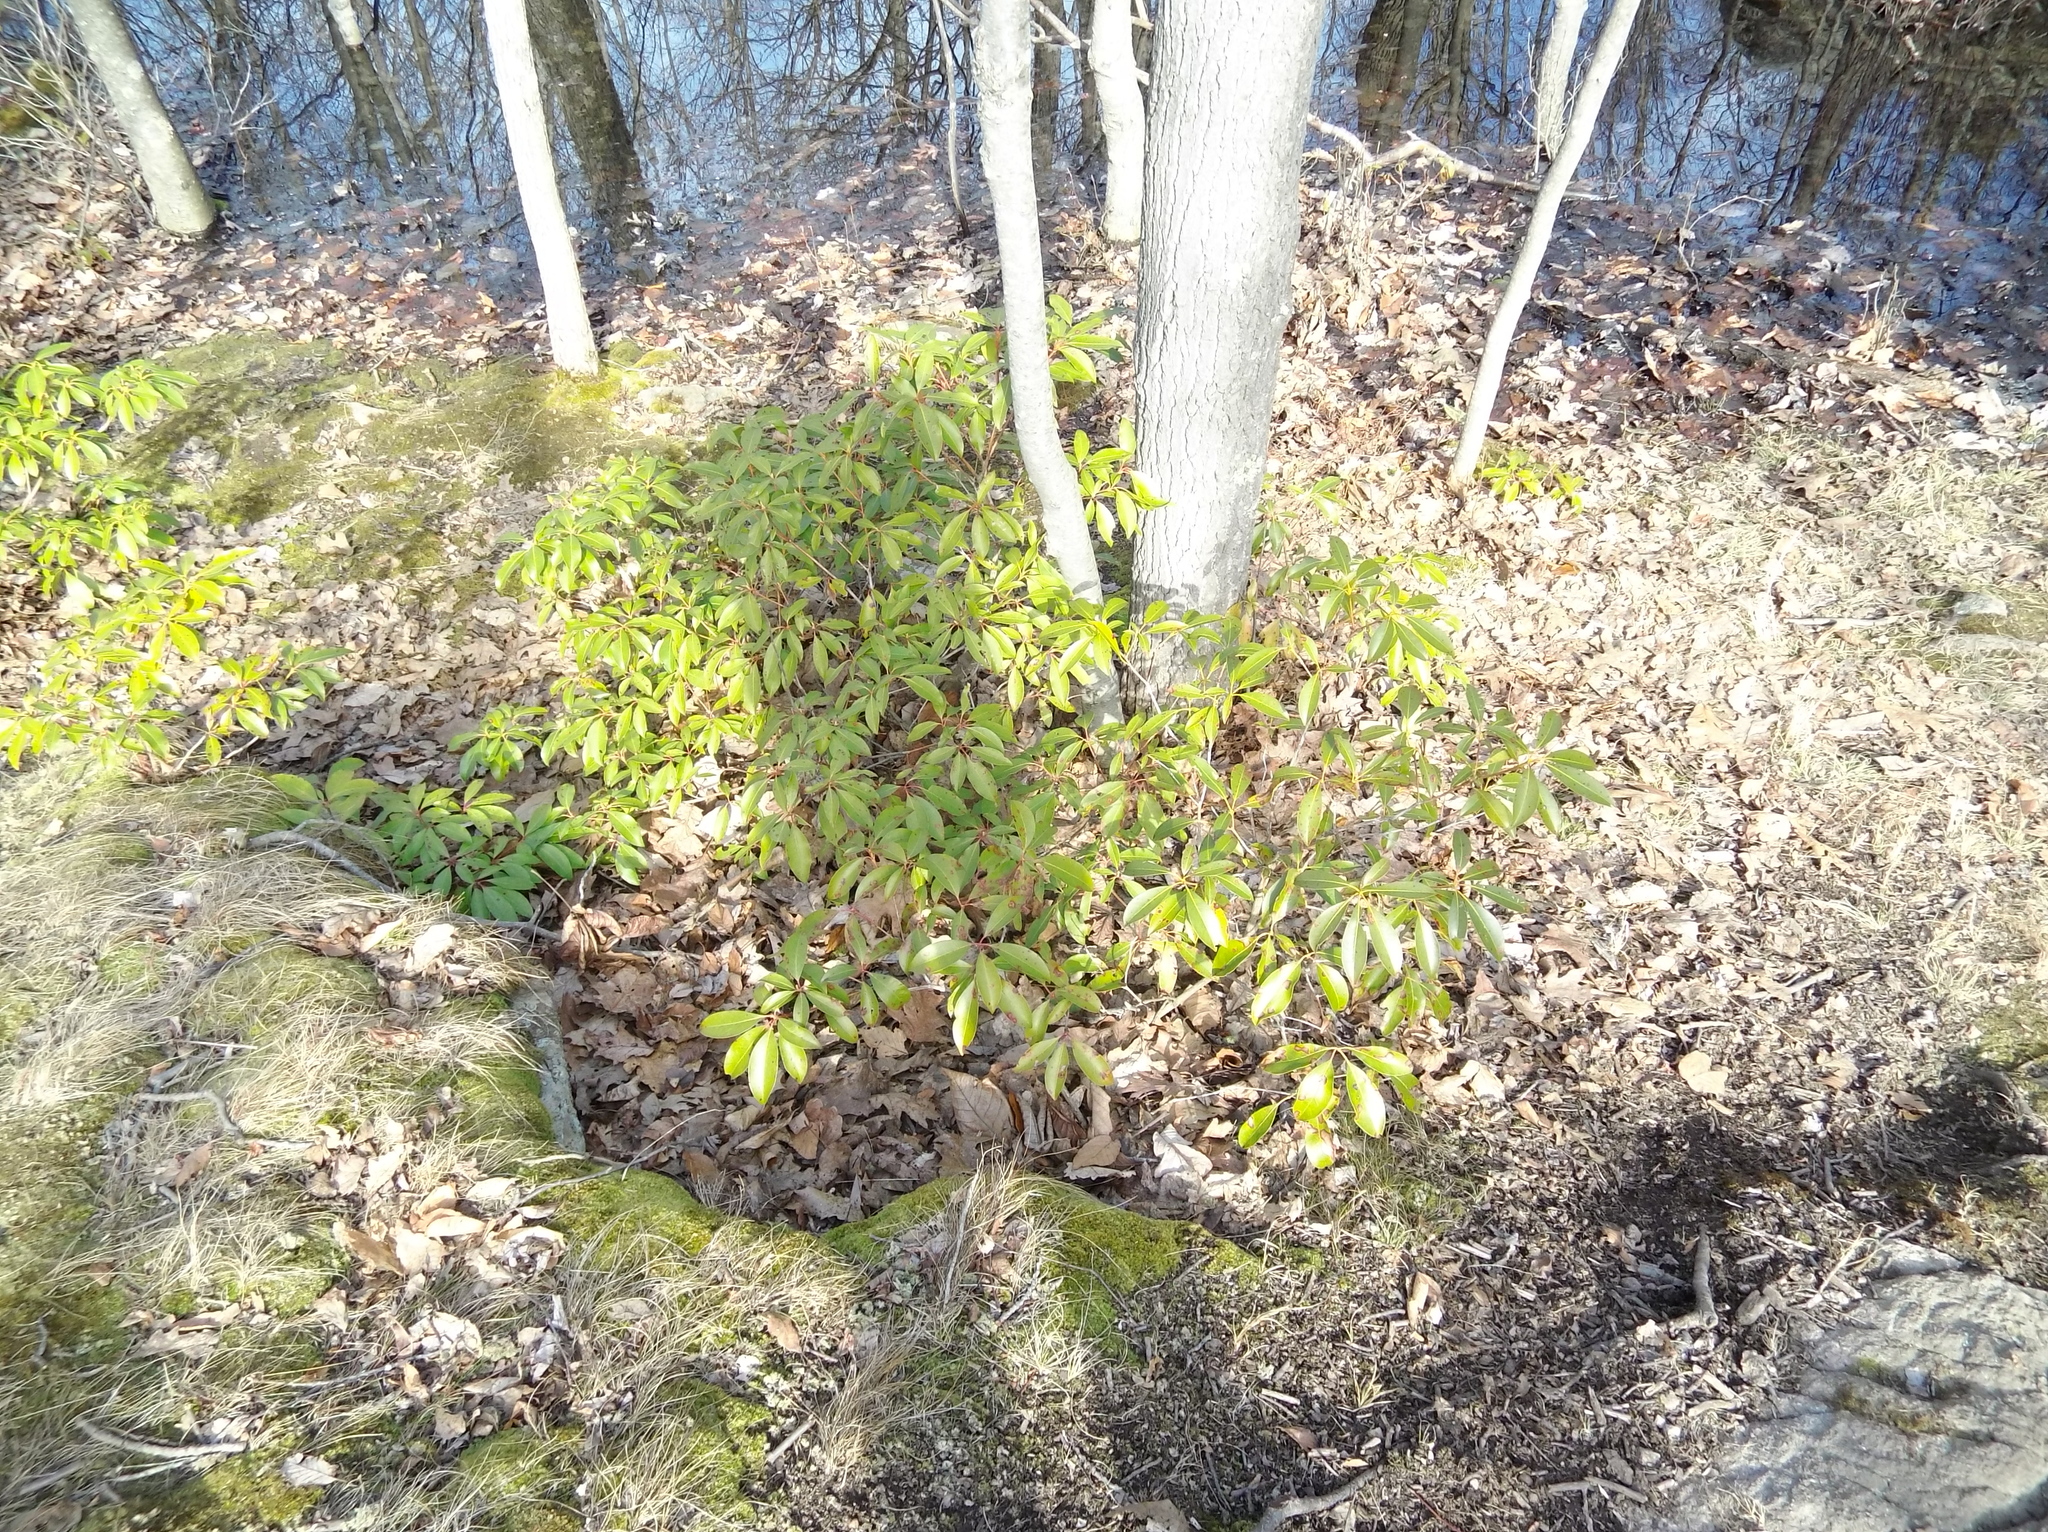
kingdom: Plantae
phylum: Tracheophyta
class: Magnoliopsida
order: Ericales
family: Ericaceae
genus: Kalmia
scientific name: Kalmia latifolia
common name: Mountain-laurel
